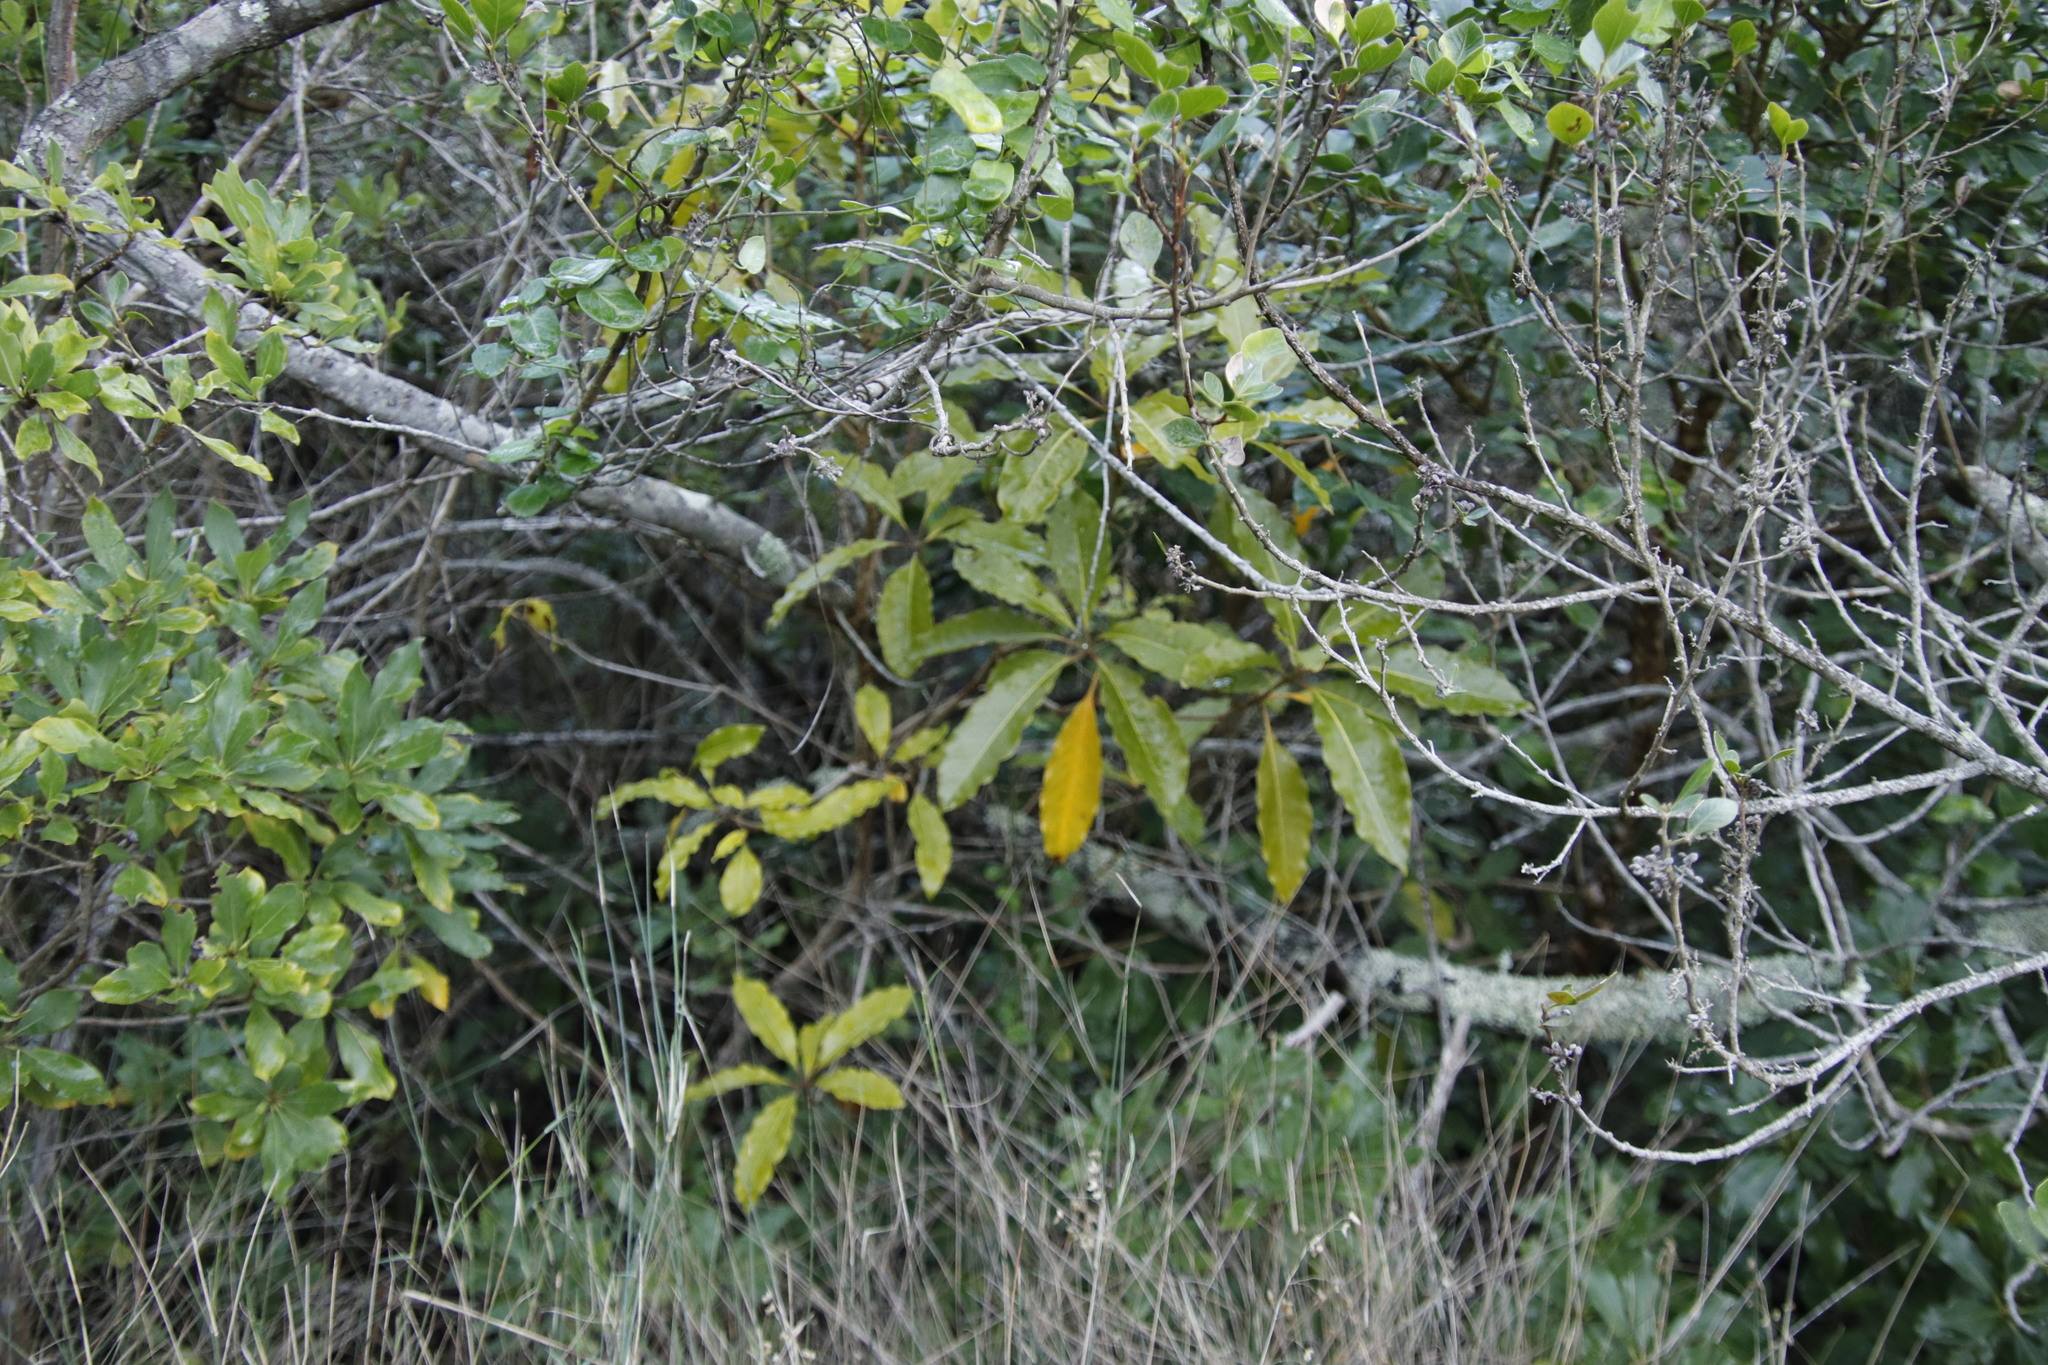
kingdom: Plantae
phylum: Tracheophyta
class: Magnoliopsida
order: Apiales
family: Pittosporaceae
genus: Pittosporum
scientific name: Pittosporum undulatum
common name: Australian cheesewood
